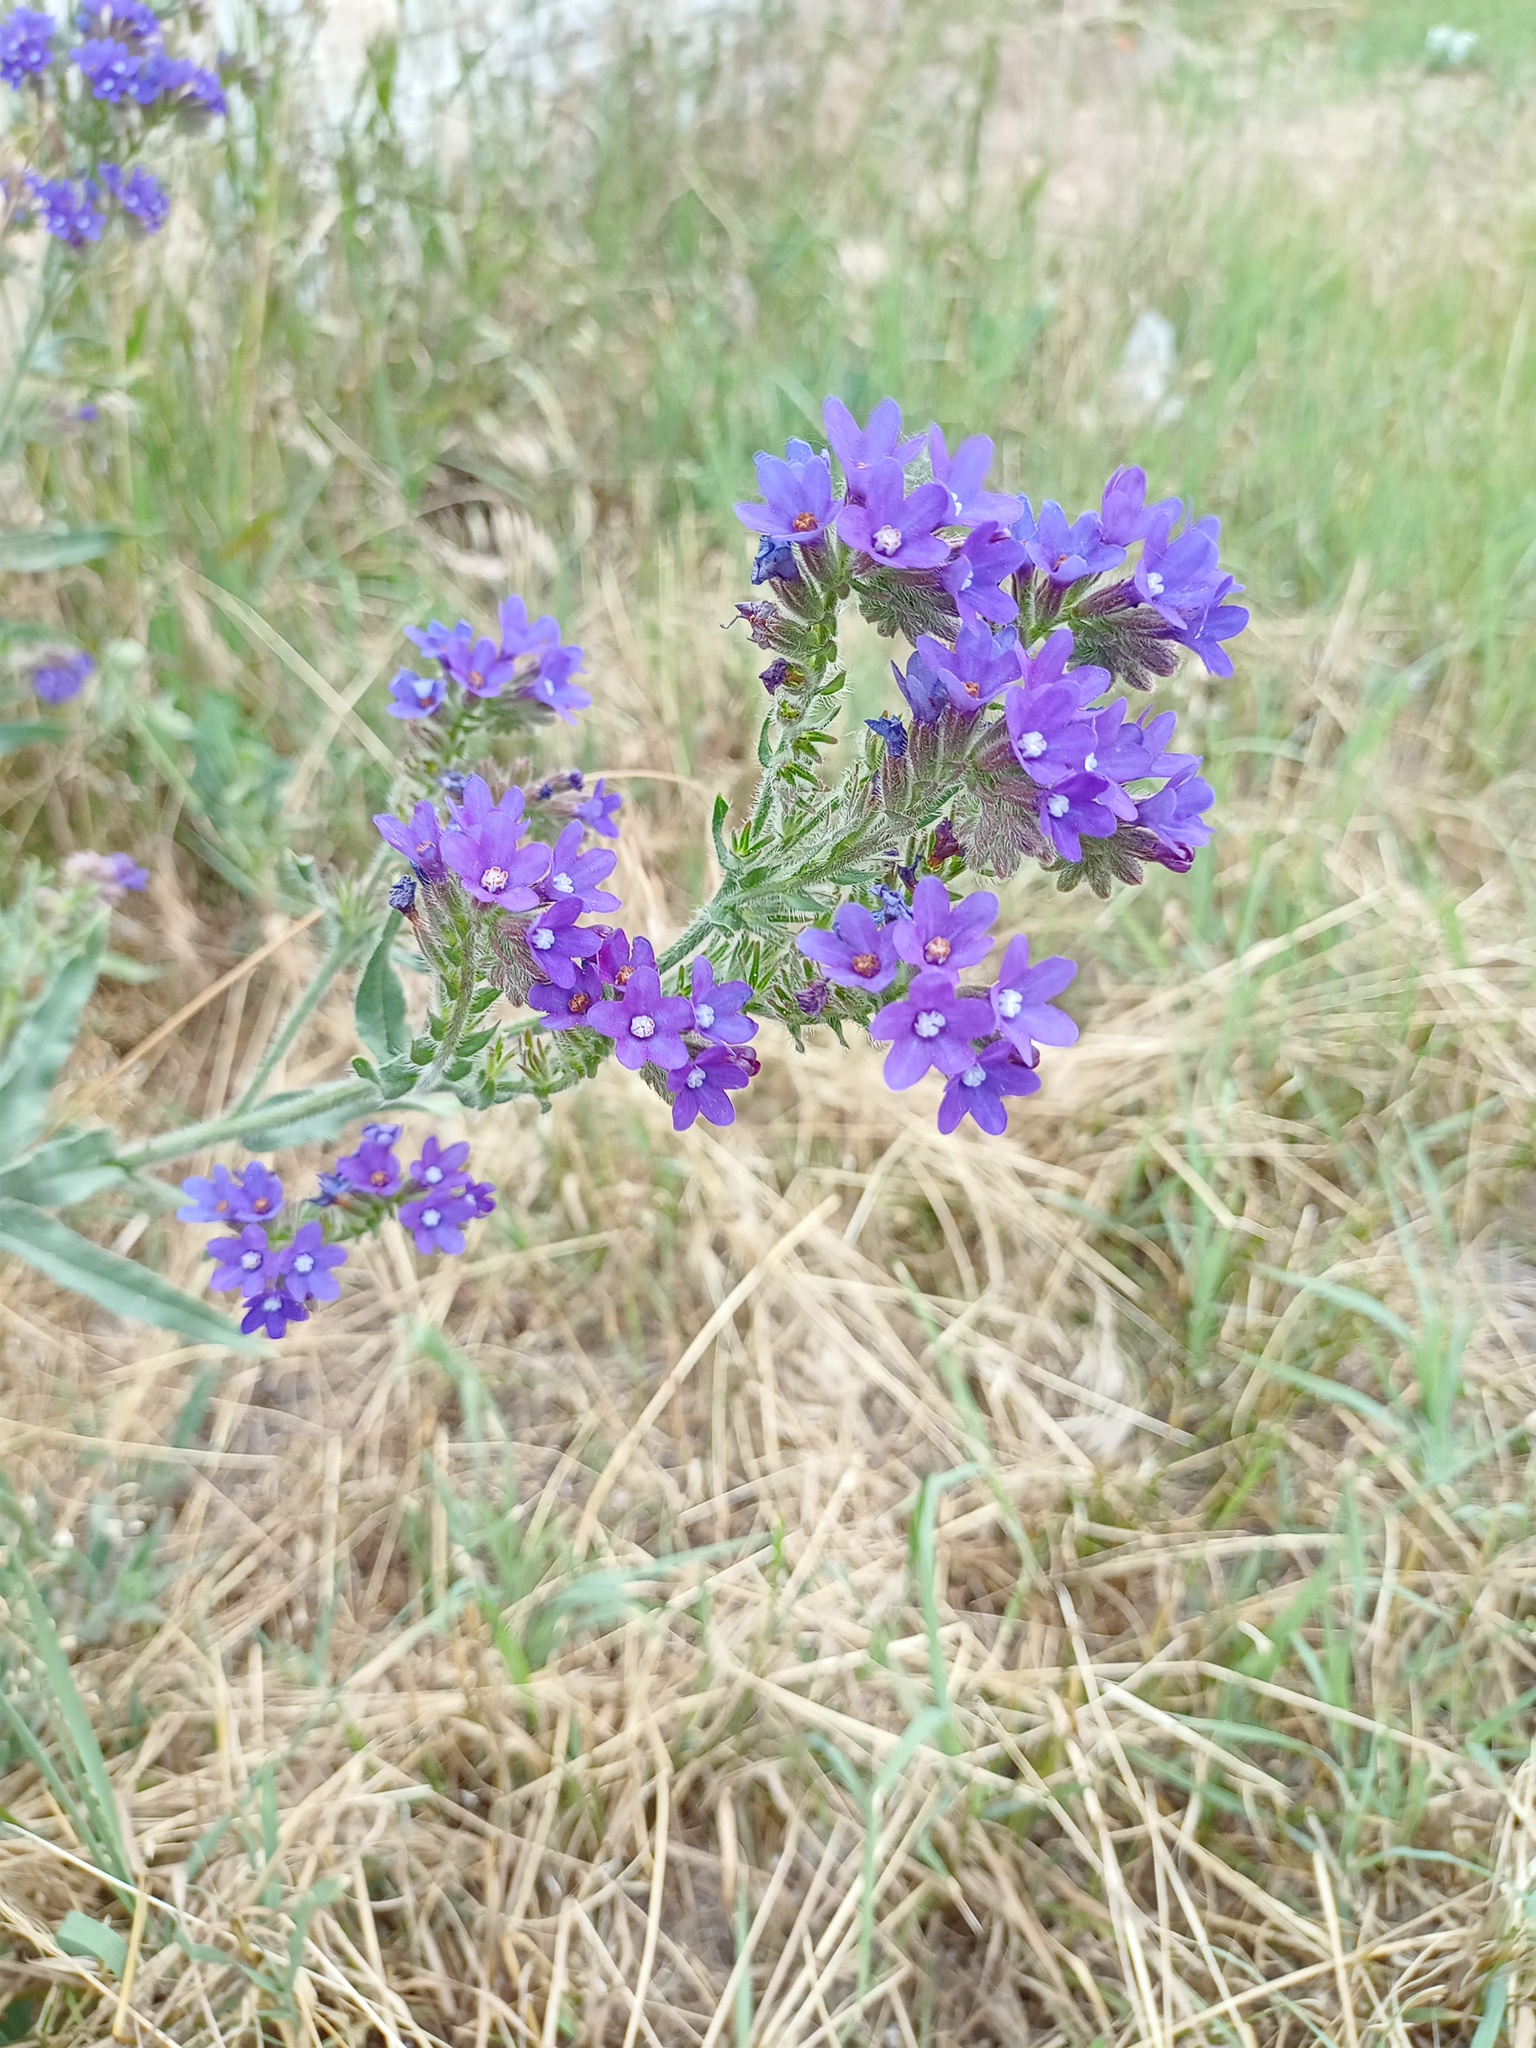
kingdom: Plantae
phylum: Tracheophyta
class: Magnoliopsida
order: Boraginales
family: Boraginaceae
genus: Anchusa
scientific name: Anchusa officinalis
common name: Alkanet
